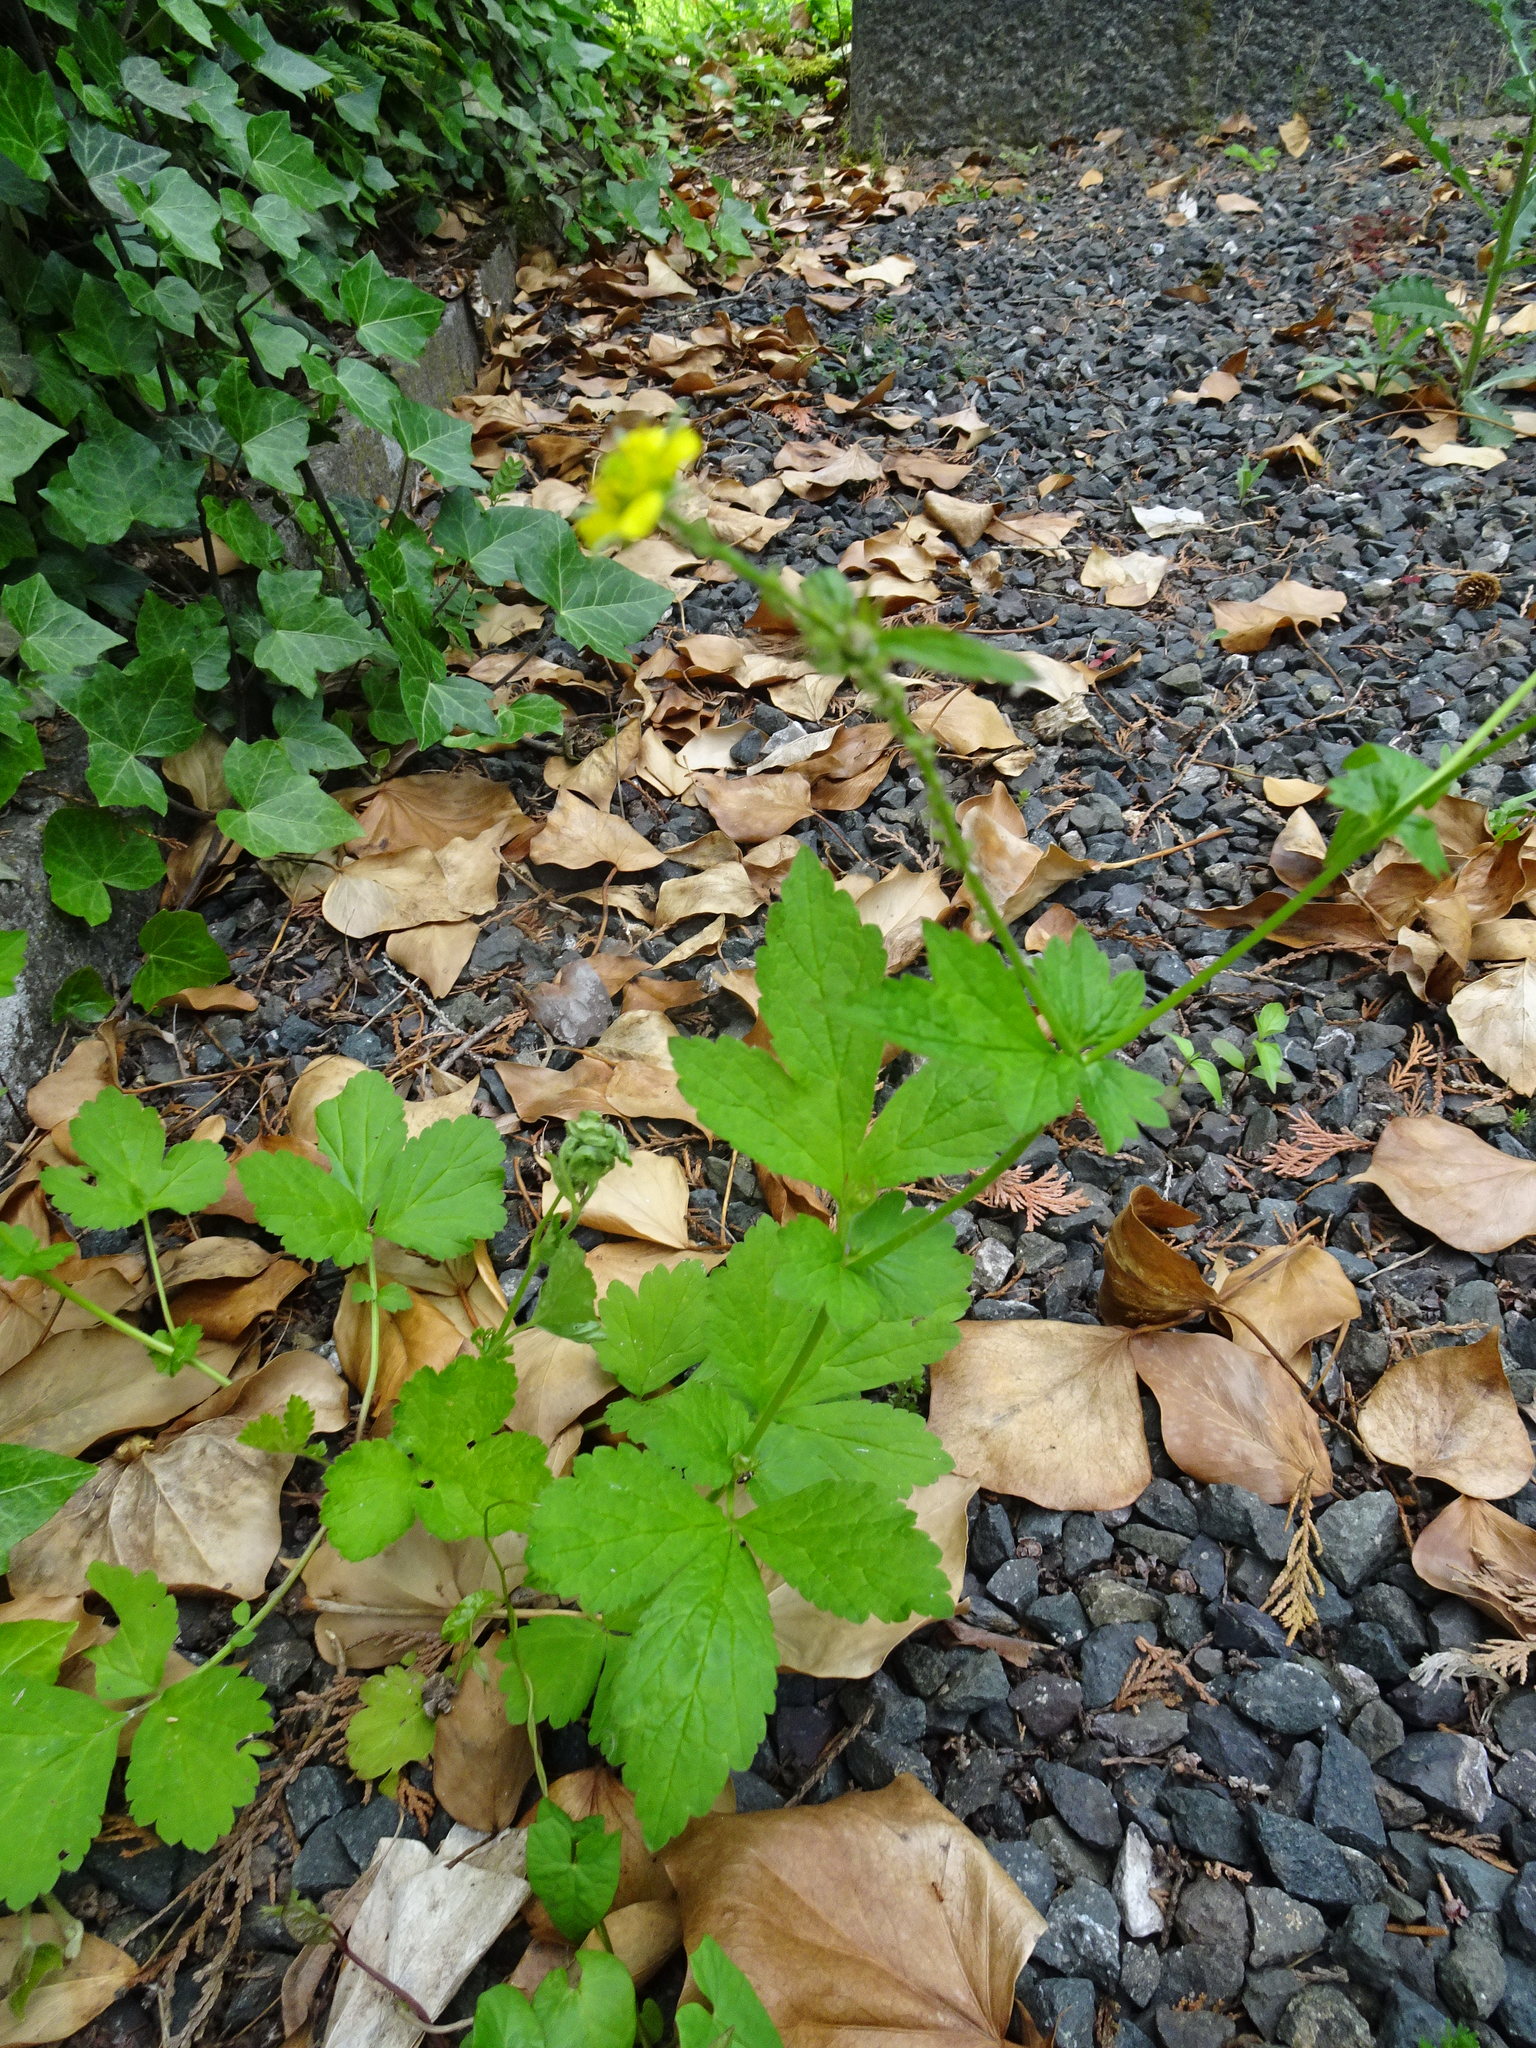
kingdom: Plantae
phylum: Tracheophyta
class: Magnoliopsida
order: Rosales
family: Rosaceae
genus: Geum
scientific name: Geum urbanum
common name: Wood avens
